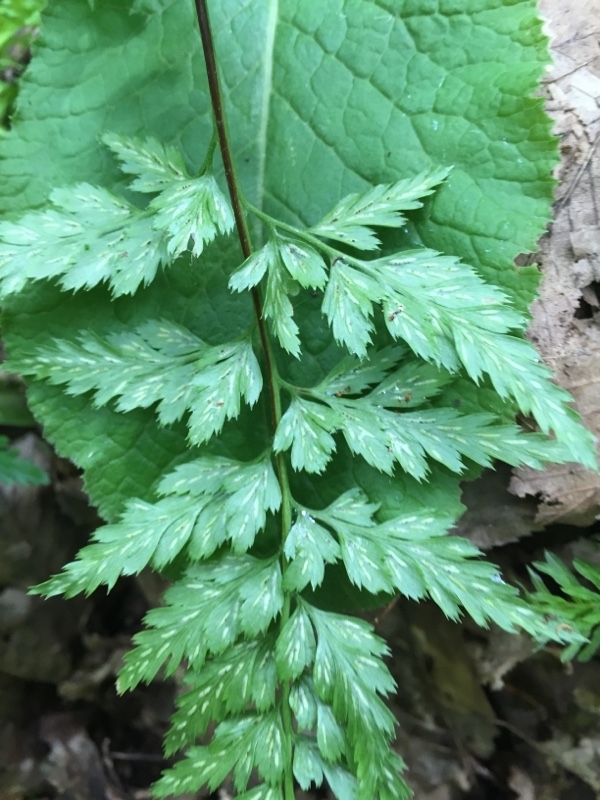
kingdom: Plantae
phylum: Tracheophyta
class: Polypodiopsida
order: Polypodiales
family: Aspleniaceae
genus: Asplenium
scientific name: Asplenium adiantum-nigrum
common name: Black spleenwort
